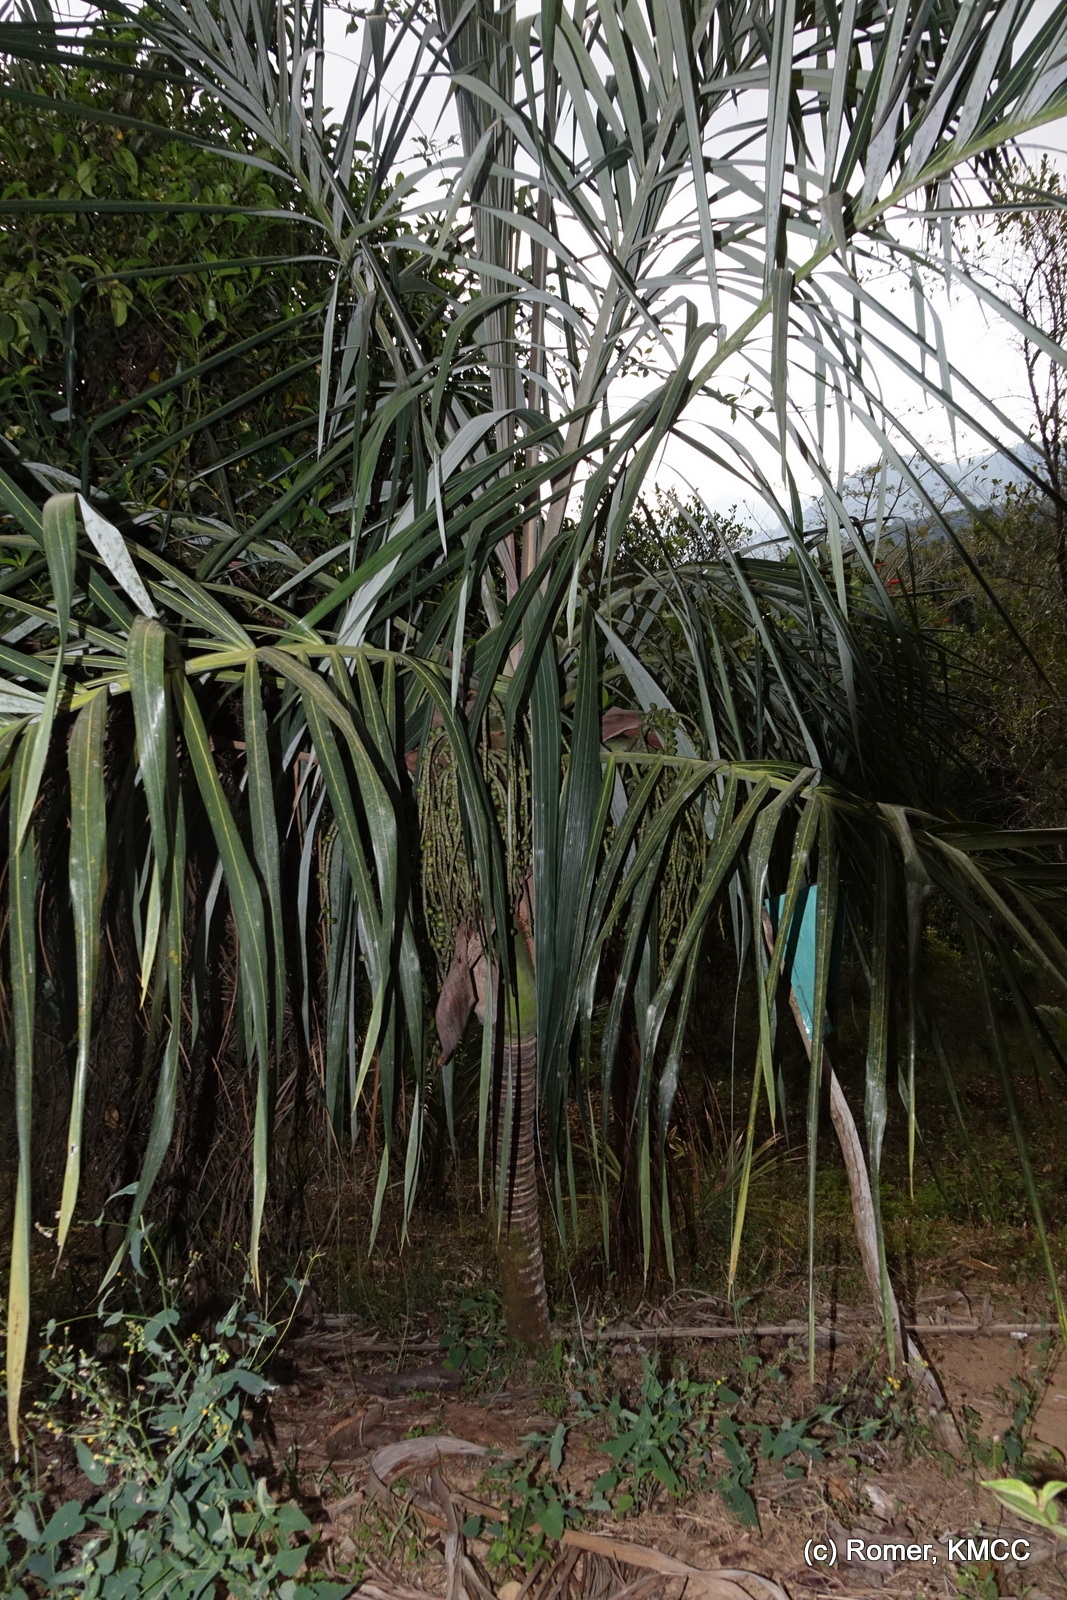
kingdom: Plantae
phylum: Tracheophyta
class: Liliopsida
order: Arecales
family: Arecaceae
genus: Dypsis
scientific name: Dypsis basilonga
